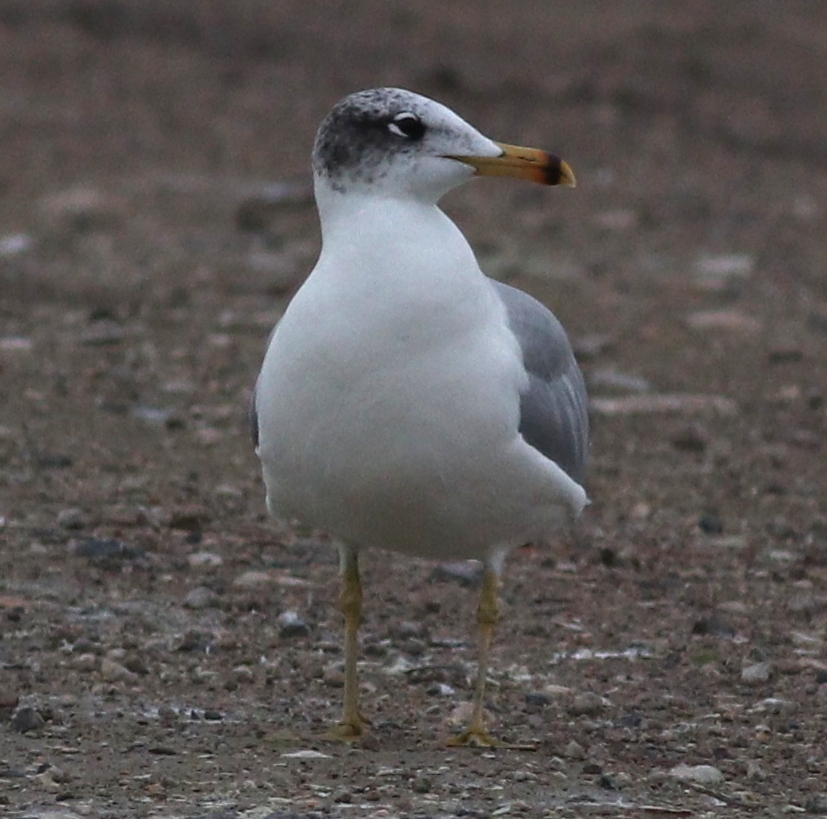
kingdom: Animalia
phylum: Chordata
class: Aves
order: Charadriiformes
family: Laridae
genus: Ichthyaetus
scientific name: Ichthyaetus ichthyaetus
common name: Pallas's gull
